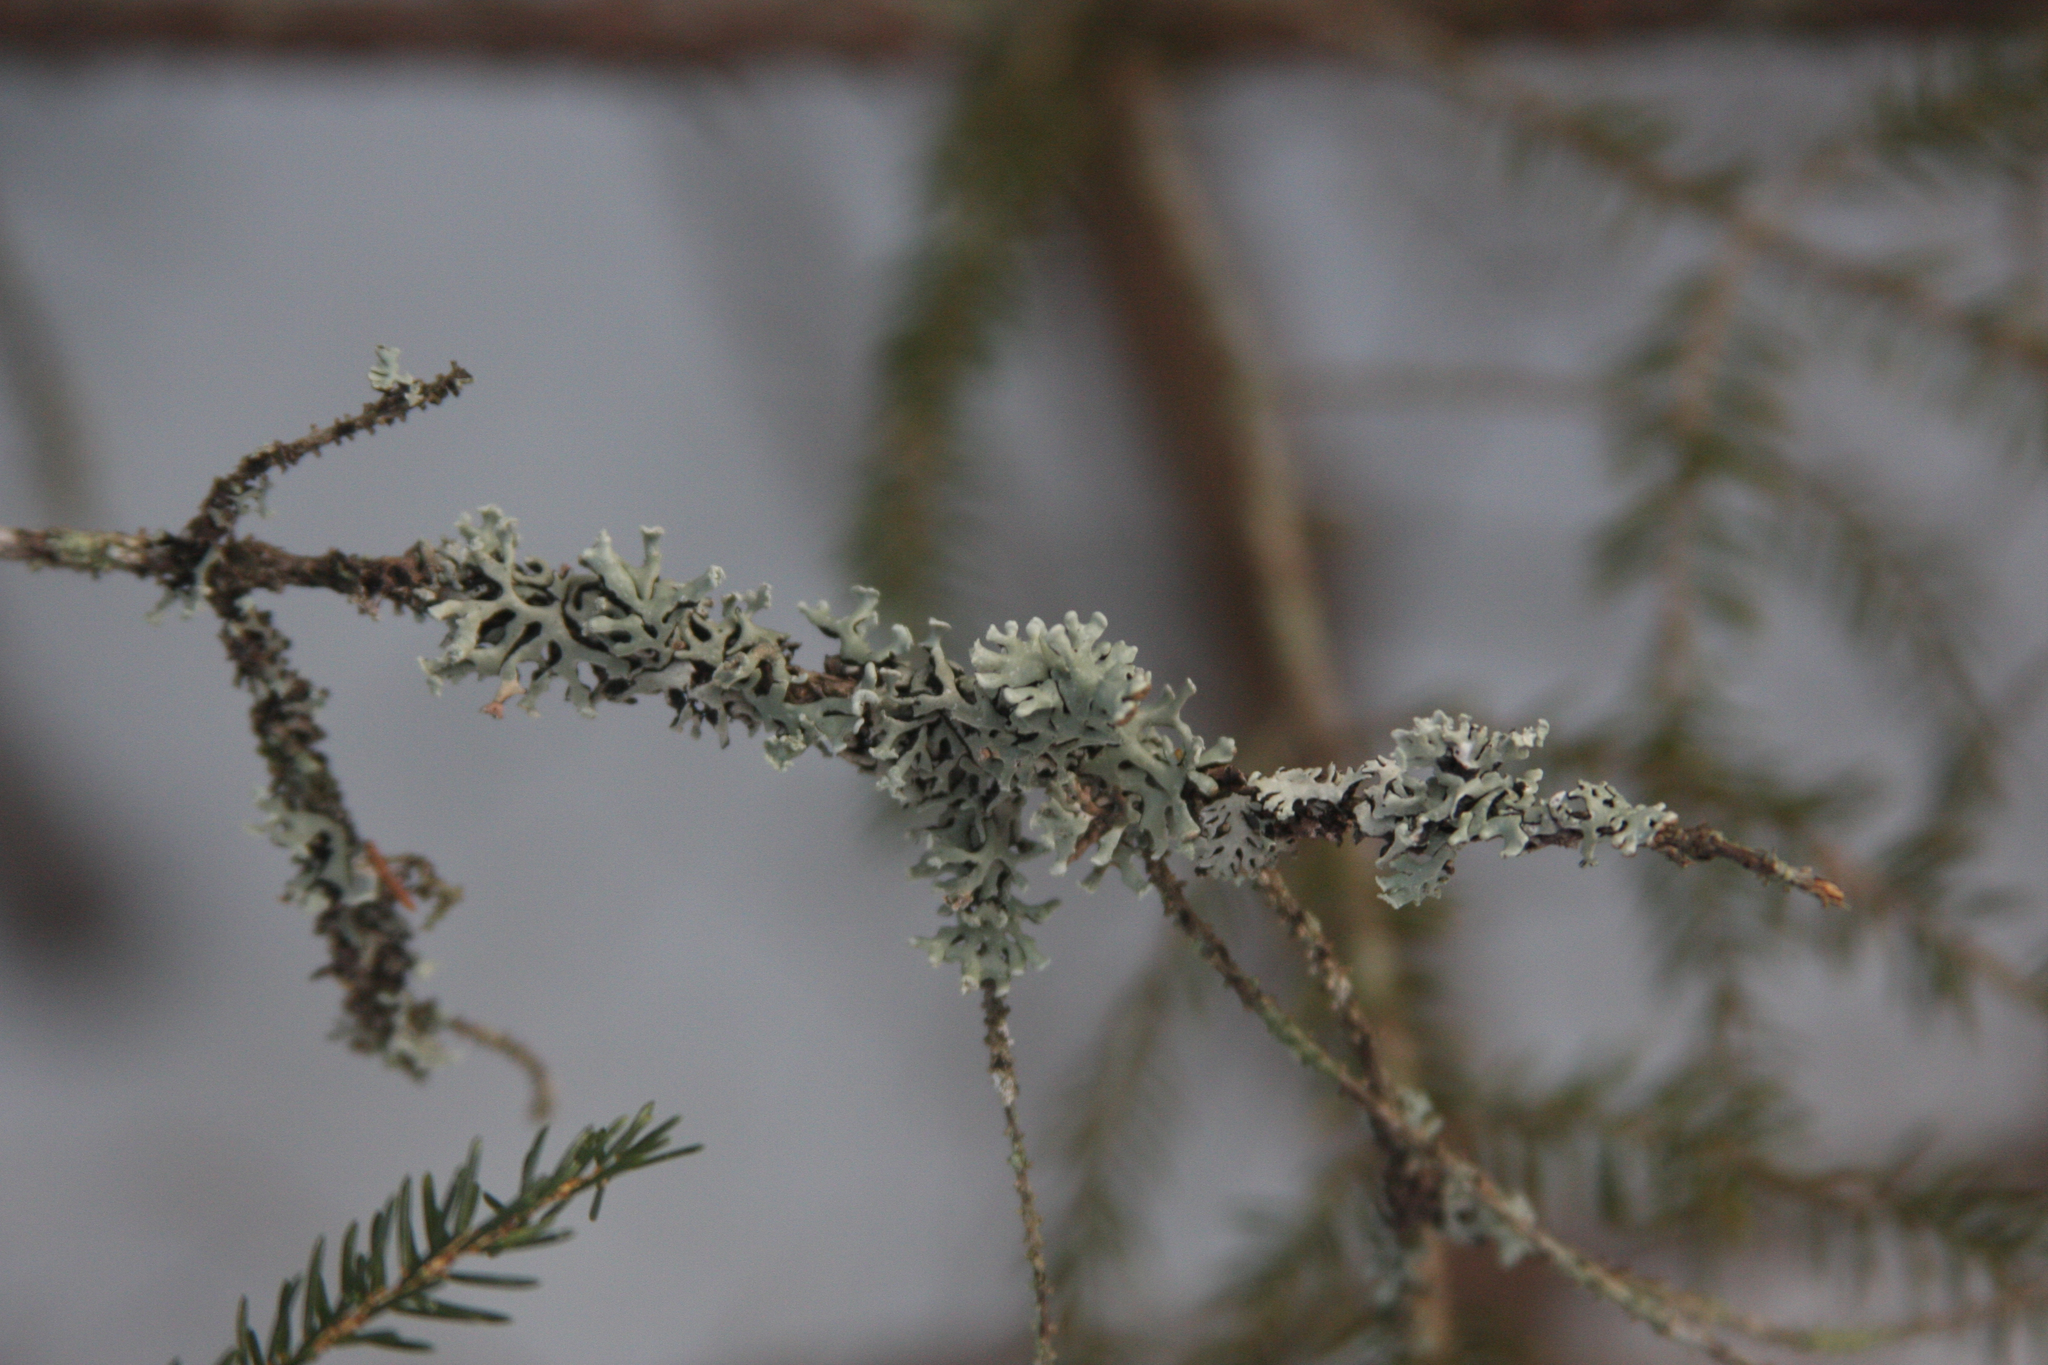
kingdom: Fungi
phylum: Ascomycota
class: Lecanoromycetes
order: Lecanorales
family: Parmeliaceae
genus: Hypogymnia
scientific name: Hypogymnia physodes
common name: Dark crottle
